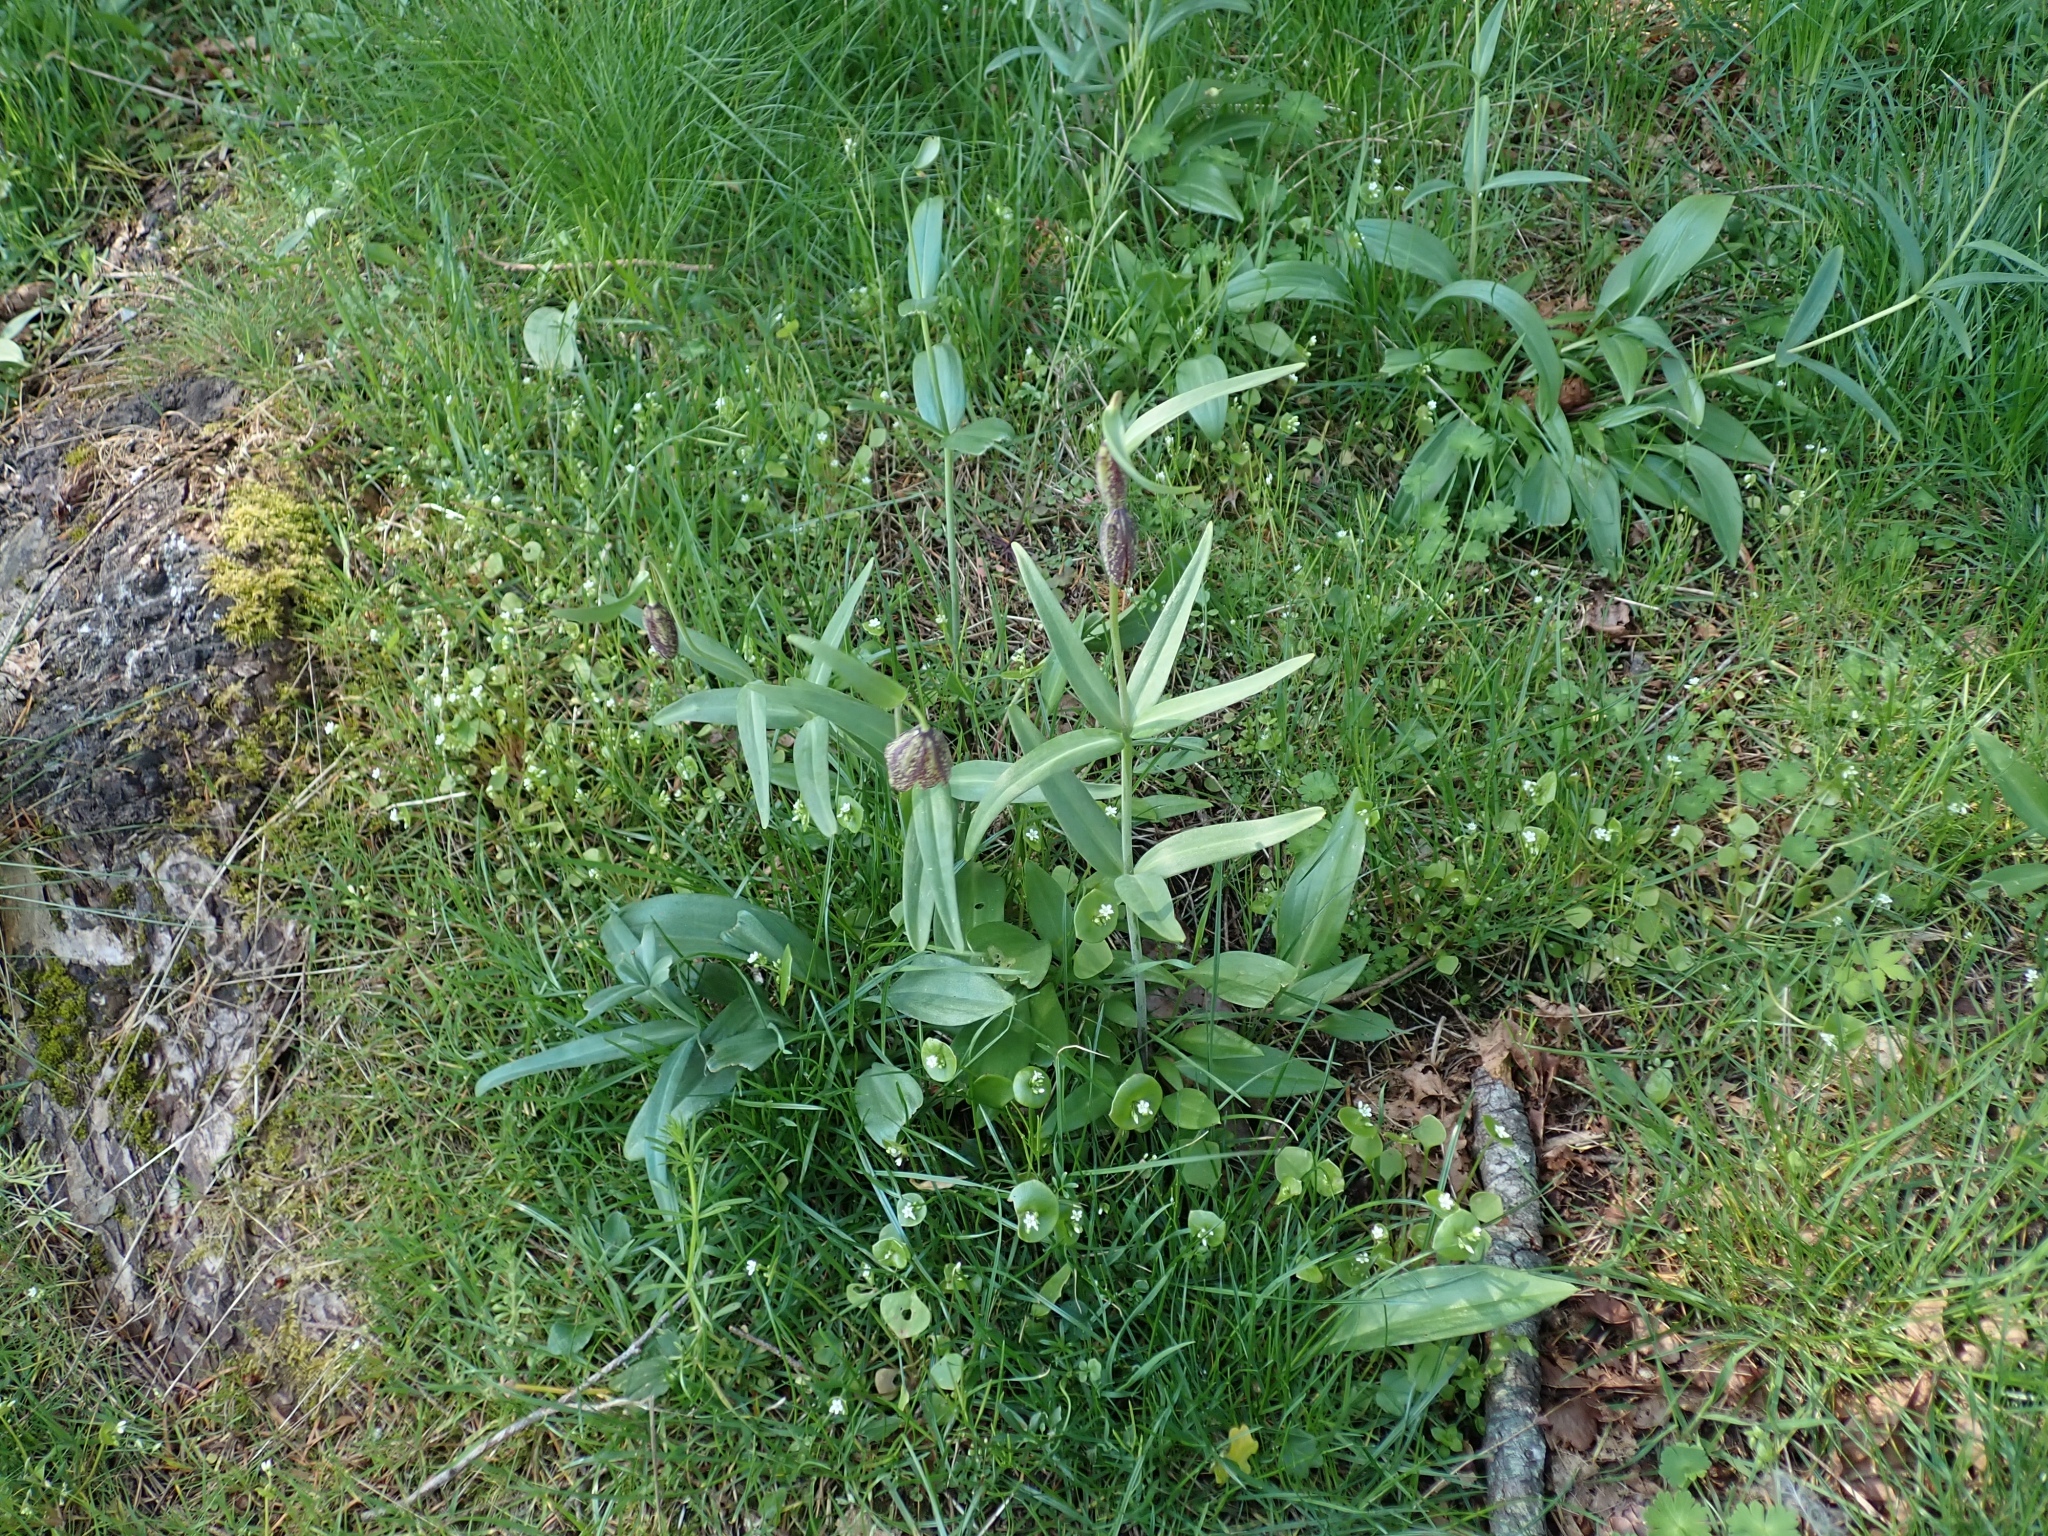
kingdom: Plantae
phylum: Tracheophyta
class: Liliopsida
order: Liliales
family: Liliaceae
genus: Fritillaria
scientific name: Fritillaria affinis
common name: Ojai fritillary
